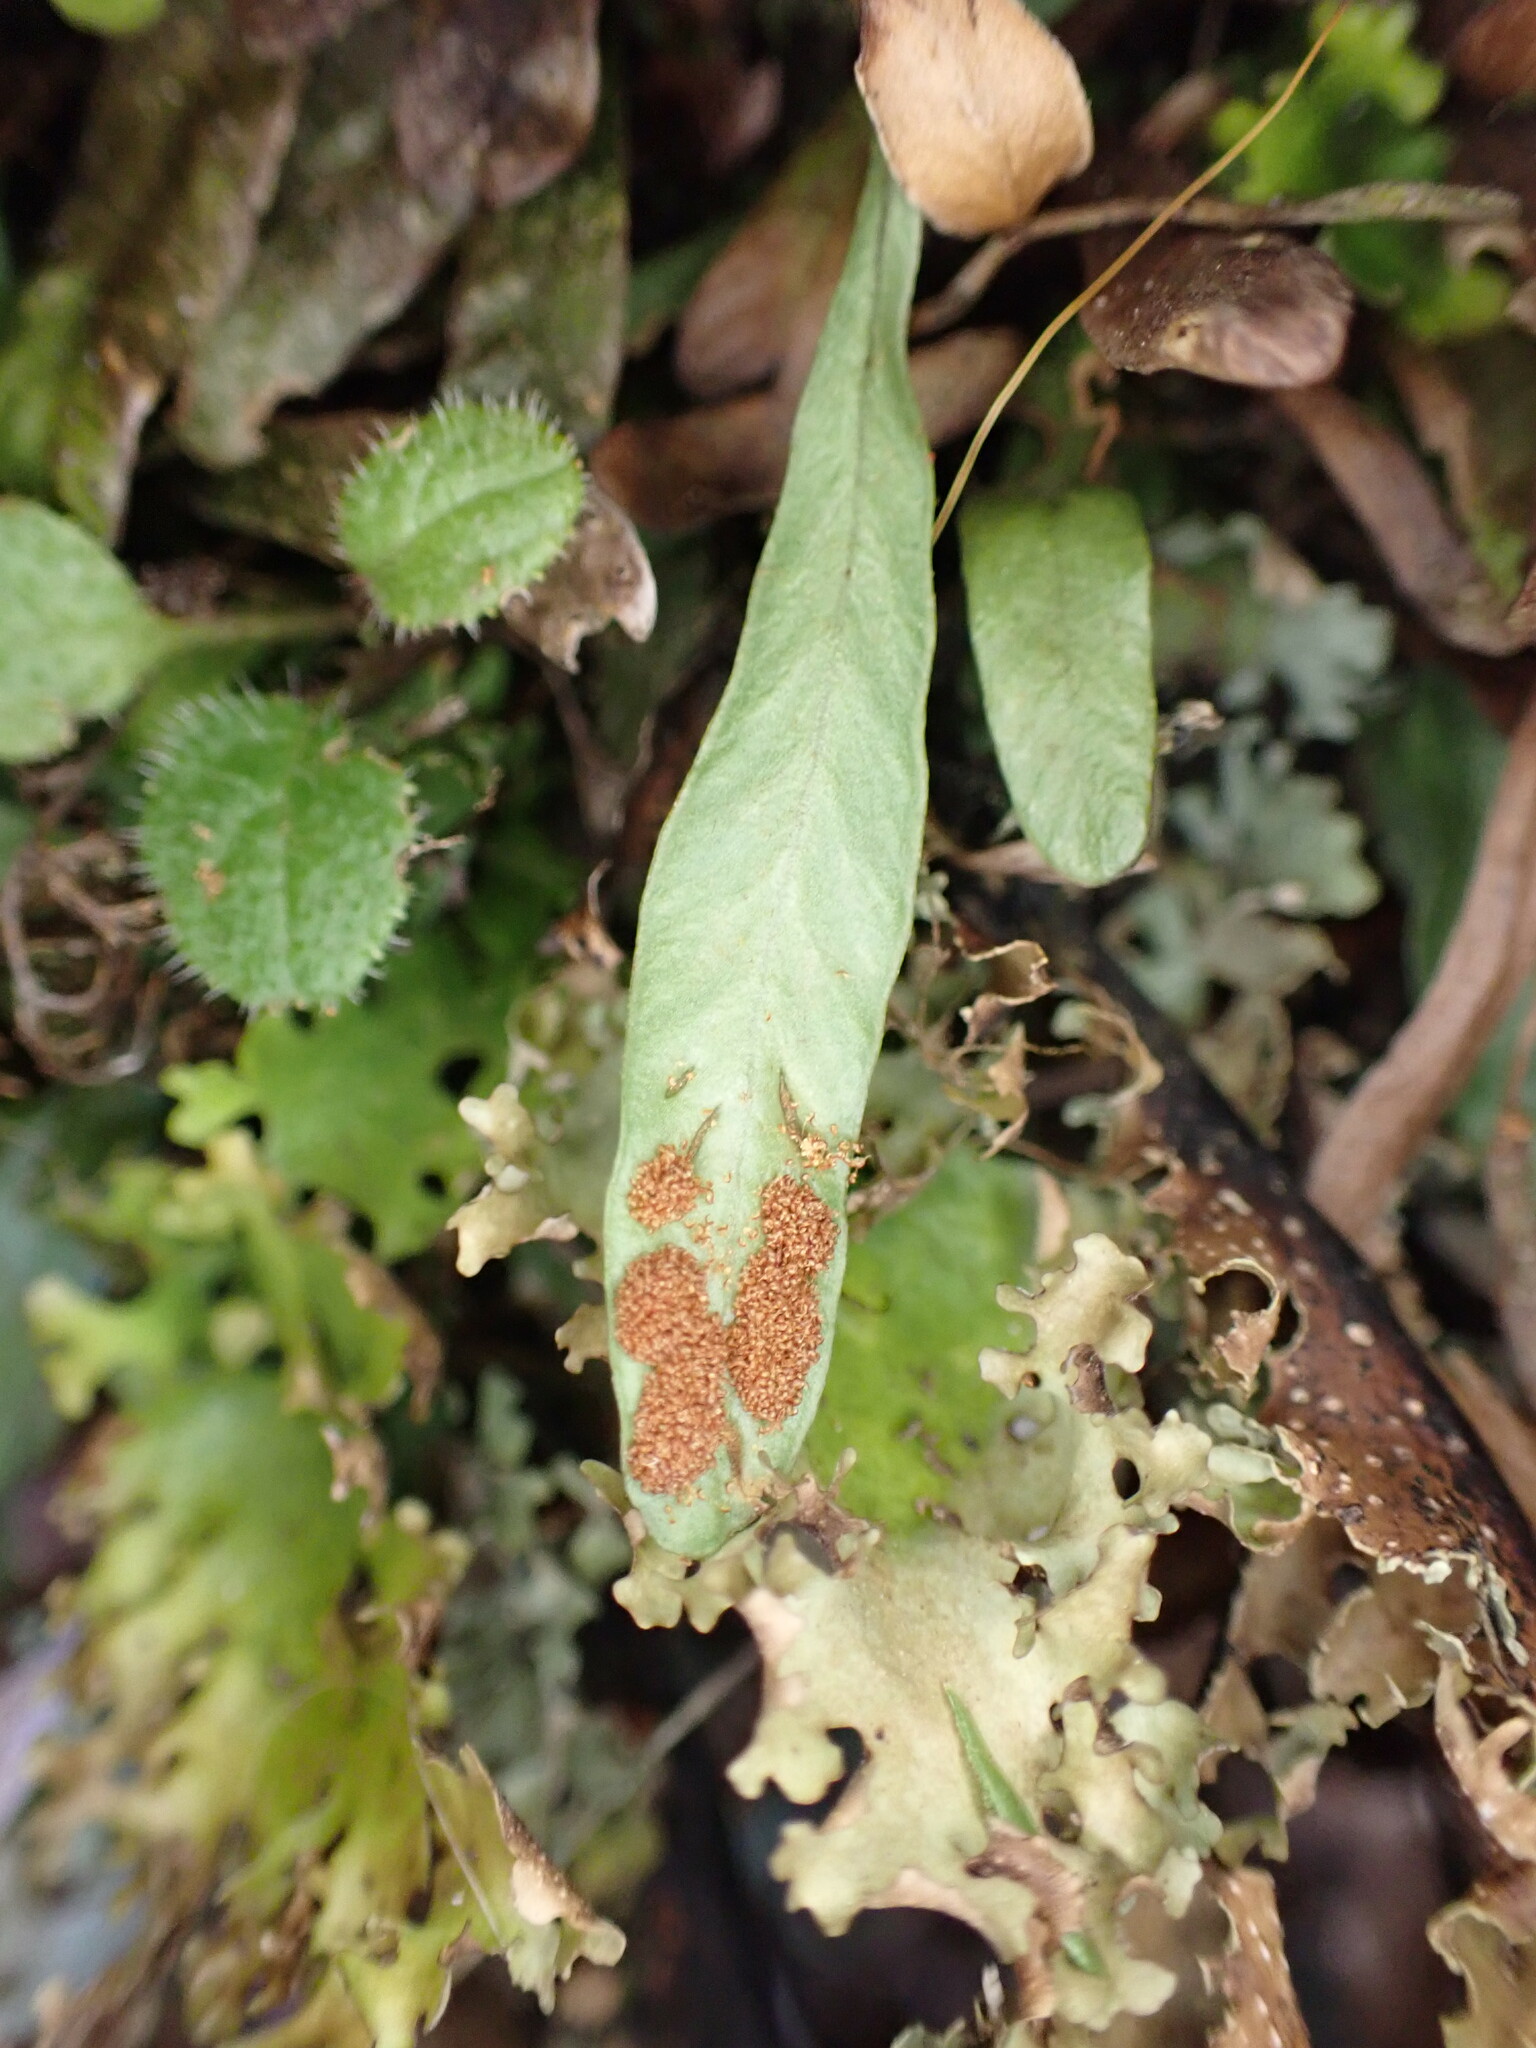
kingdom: Plantae
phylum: Tracheophyta
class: Polypodiopsida
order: Polypodiales
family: Polypodiaceae
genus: Notogrammitis
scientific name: Notogrammitis givenii
